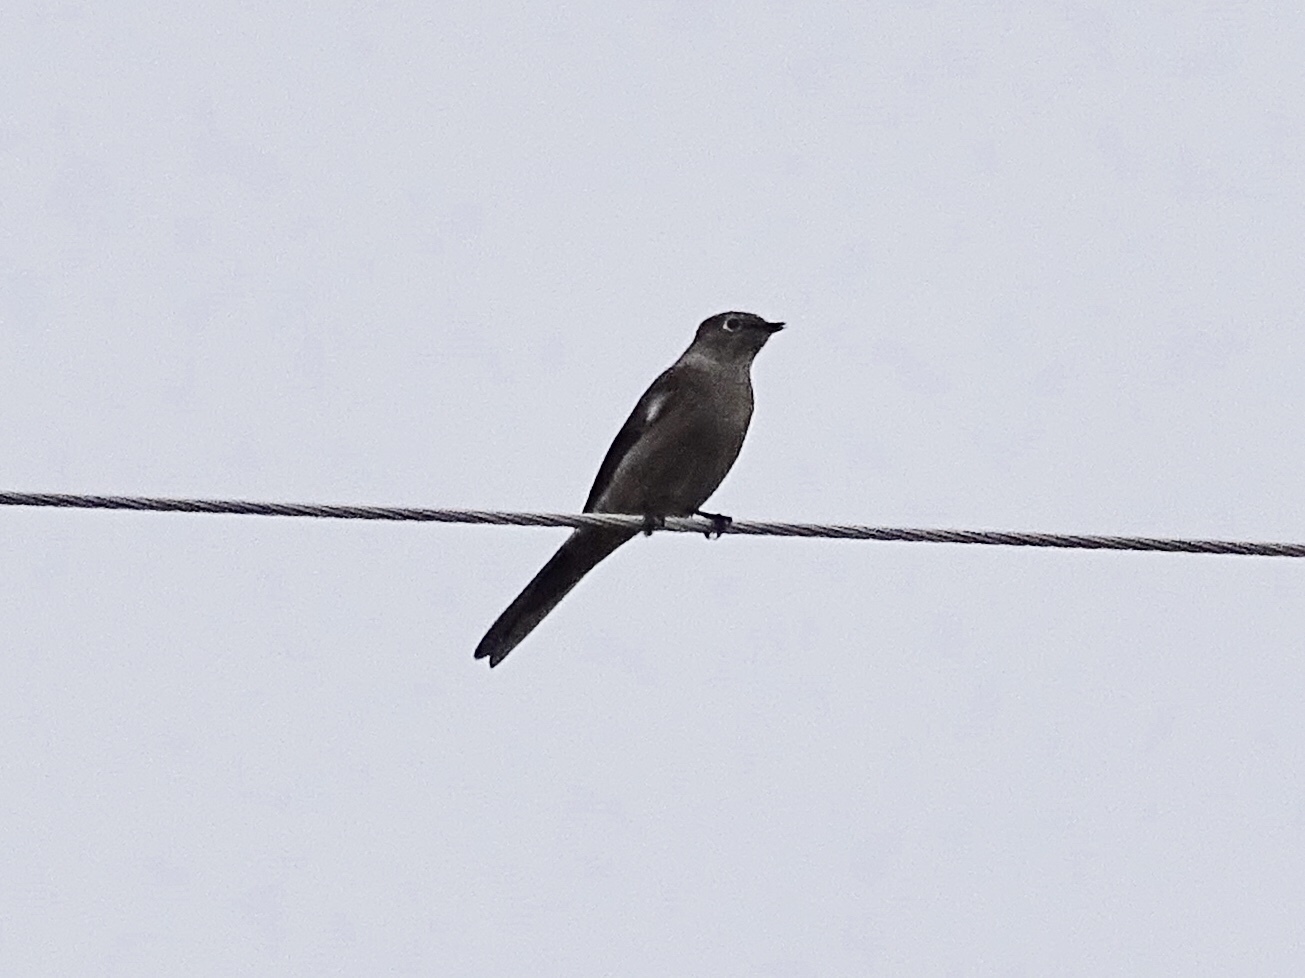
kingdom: Animalia
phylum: Chordata
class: Aves
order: Passeriformes
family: Turdidae
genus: Myadestes
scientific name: Myadestes townsendi
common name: Townsend's solitaire
